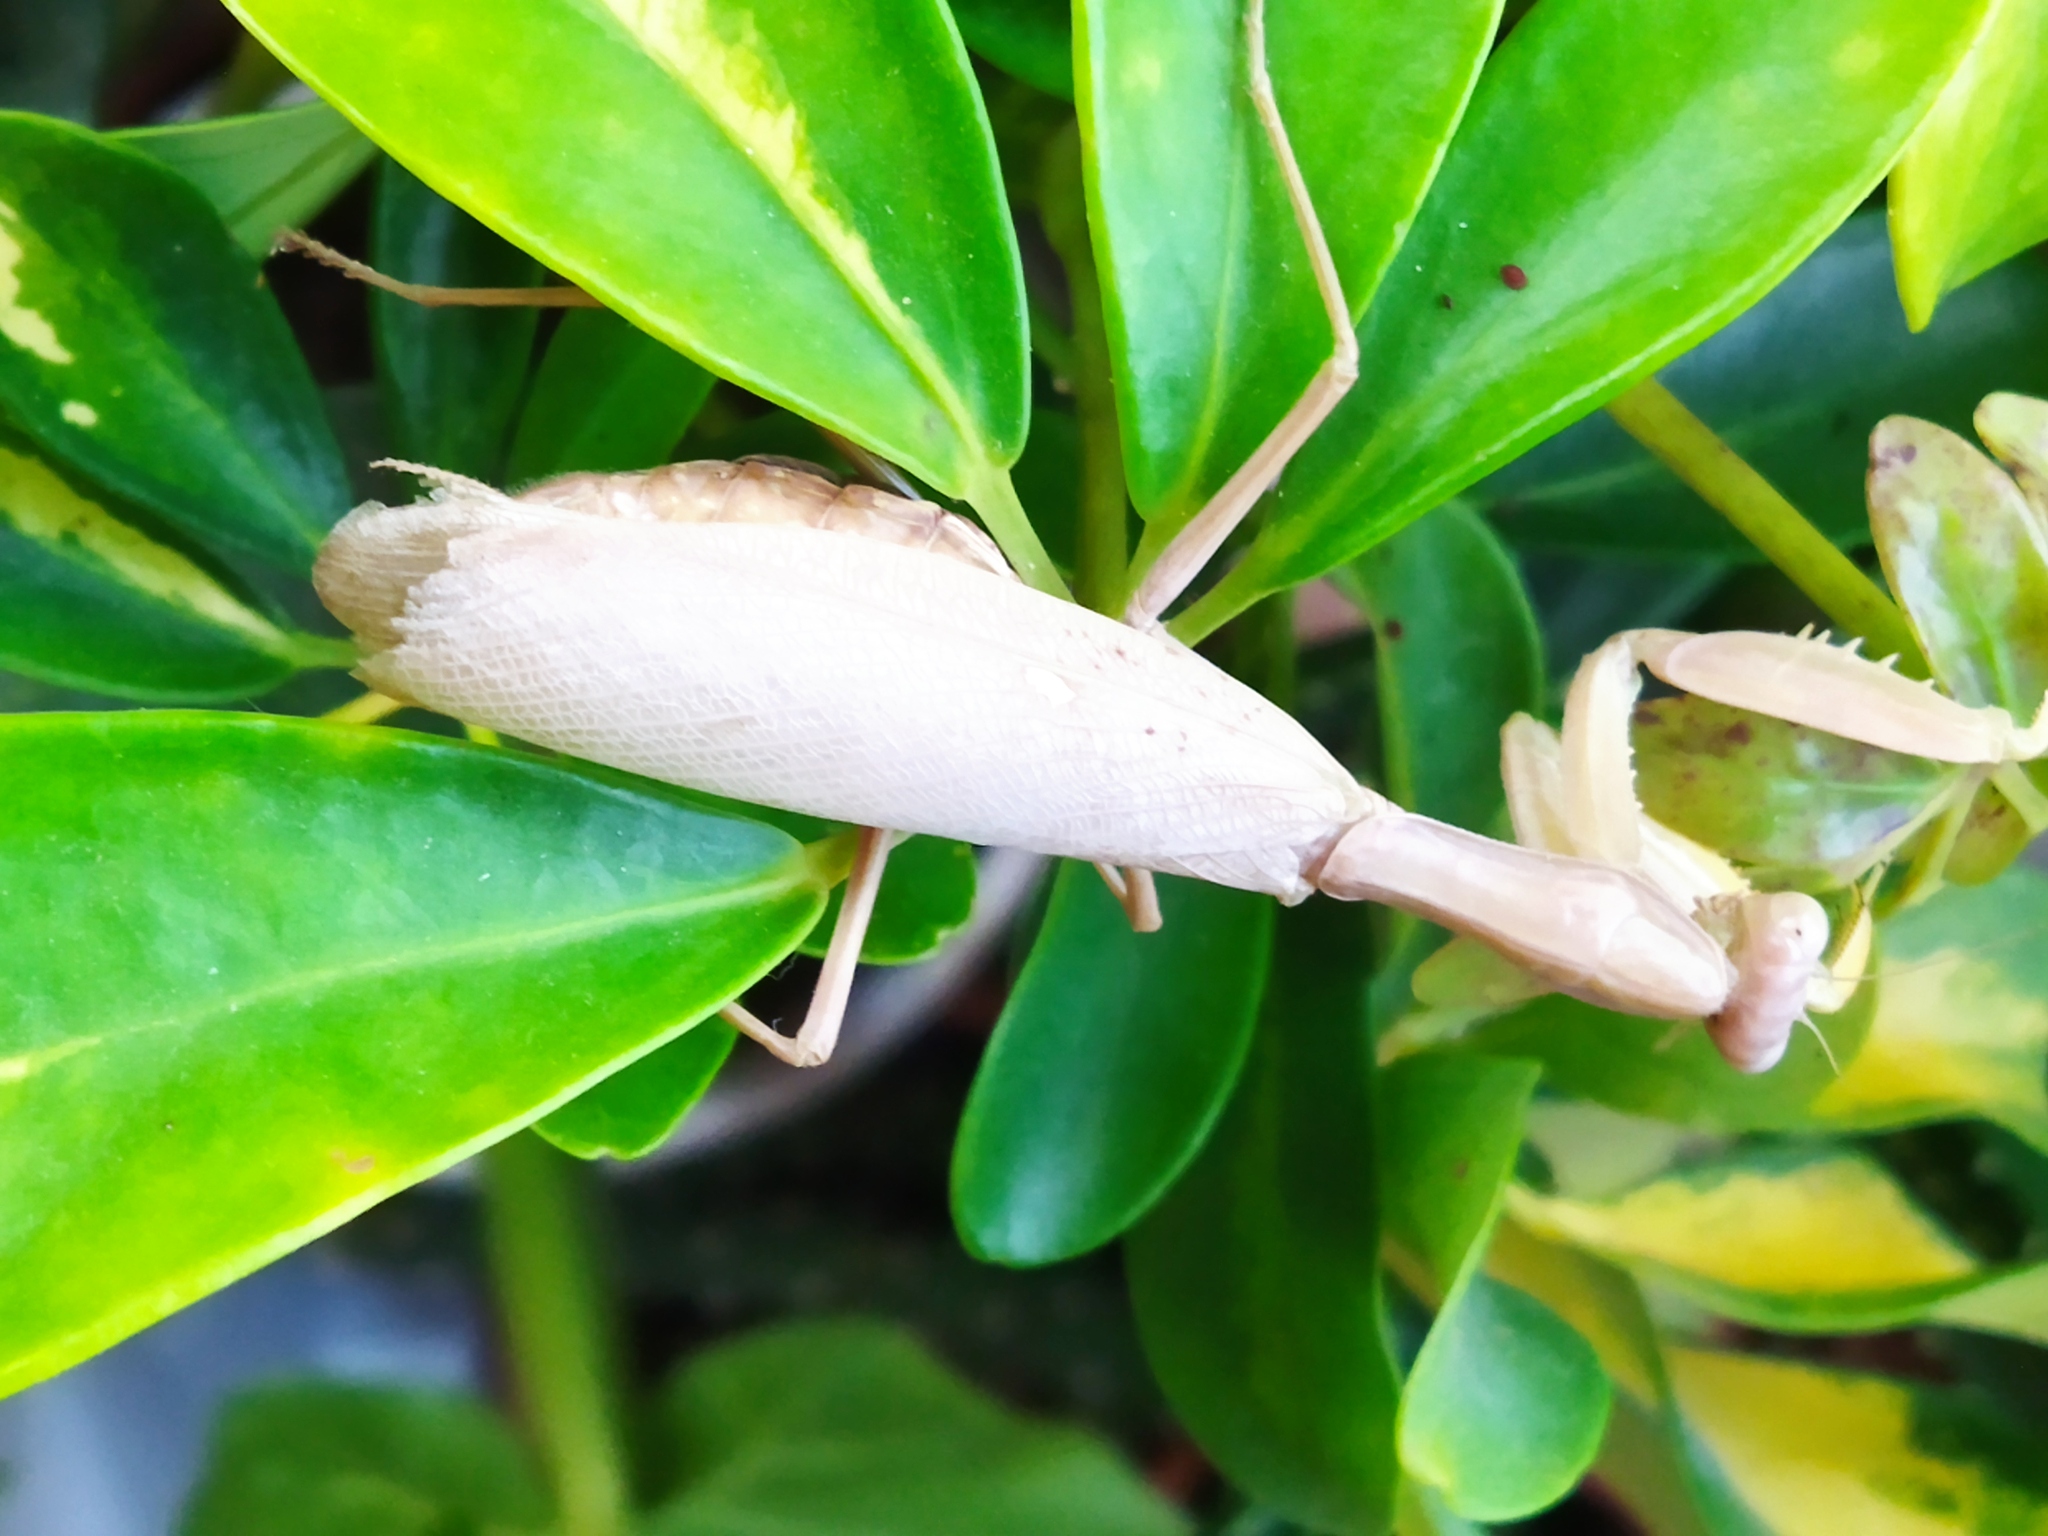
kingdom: Animalia
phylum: Arthropoda
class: Insecta
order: Mantodea
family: Mantidae
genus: Hierodula
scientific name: Hierodula transcaucasica
